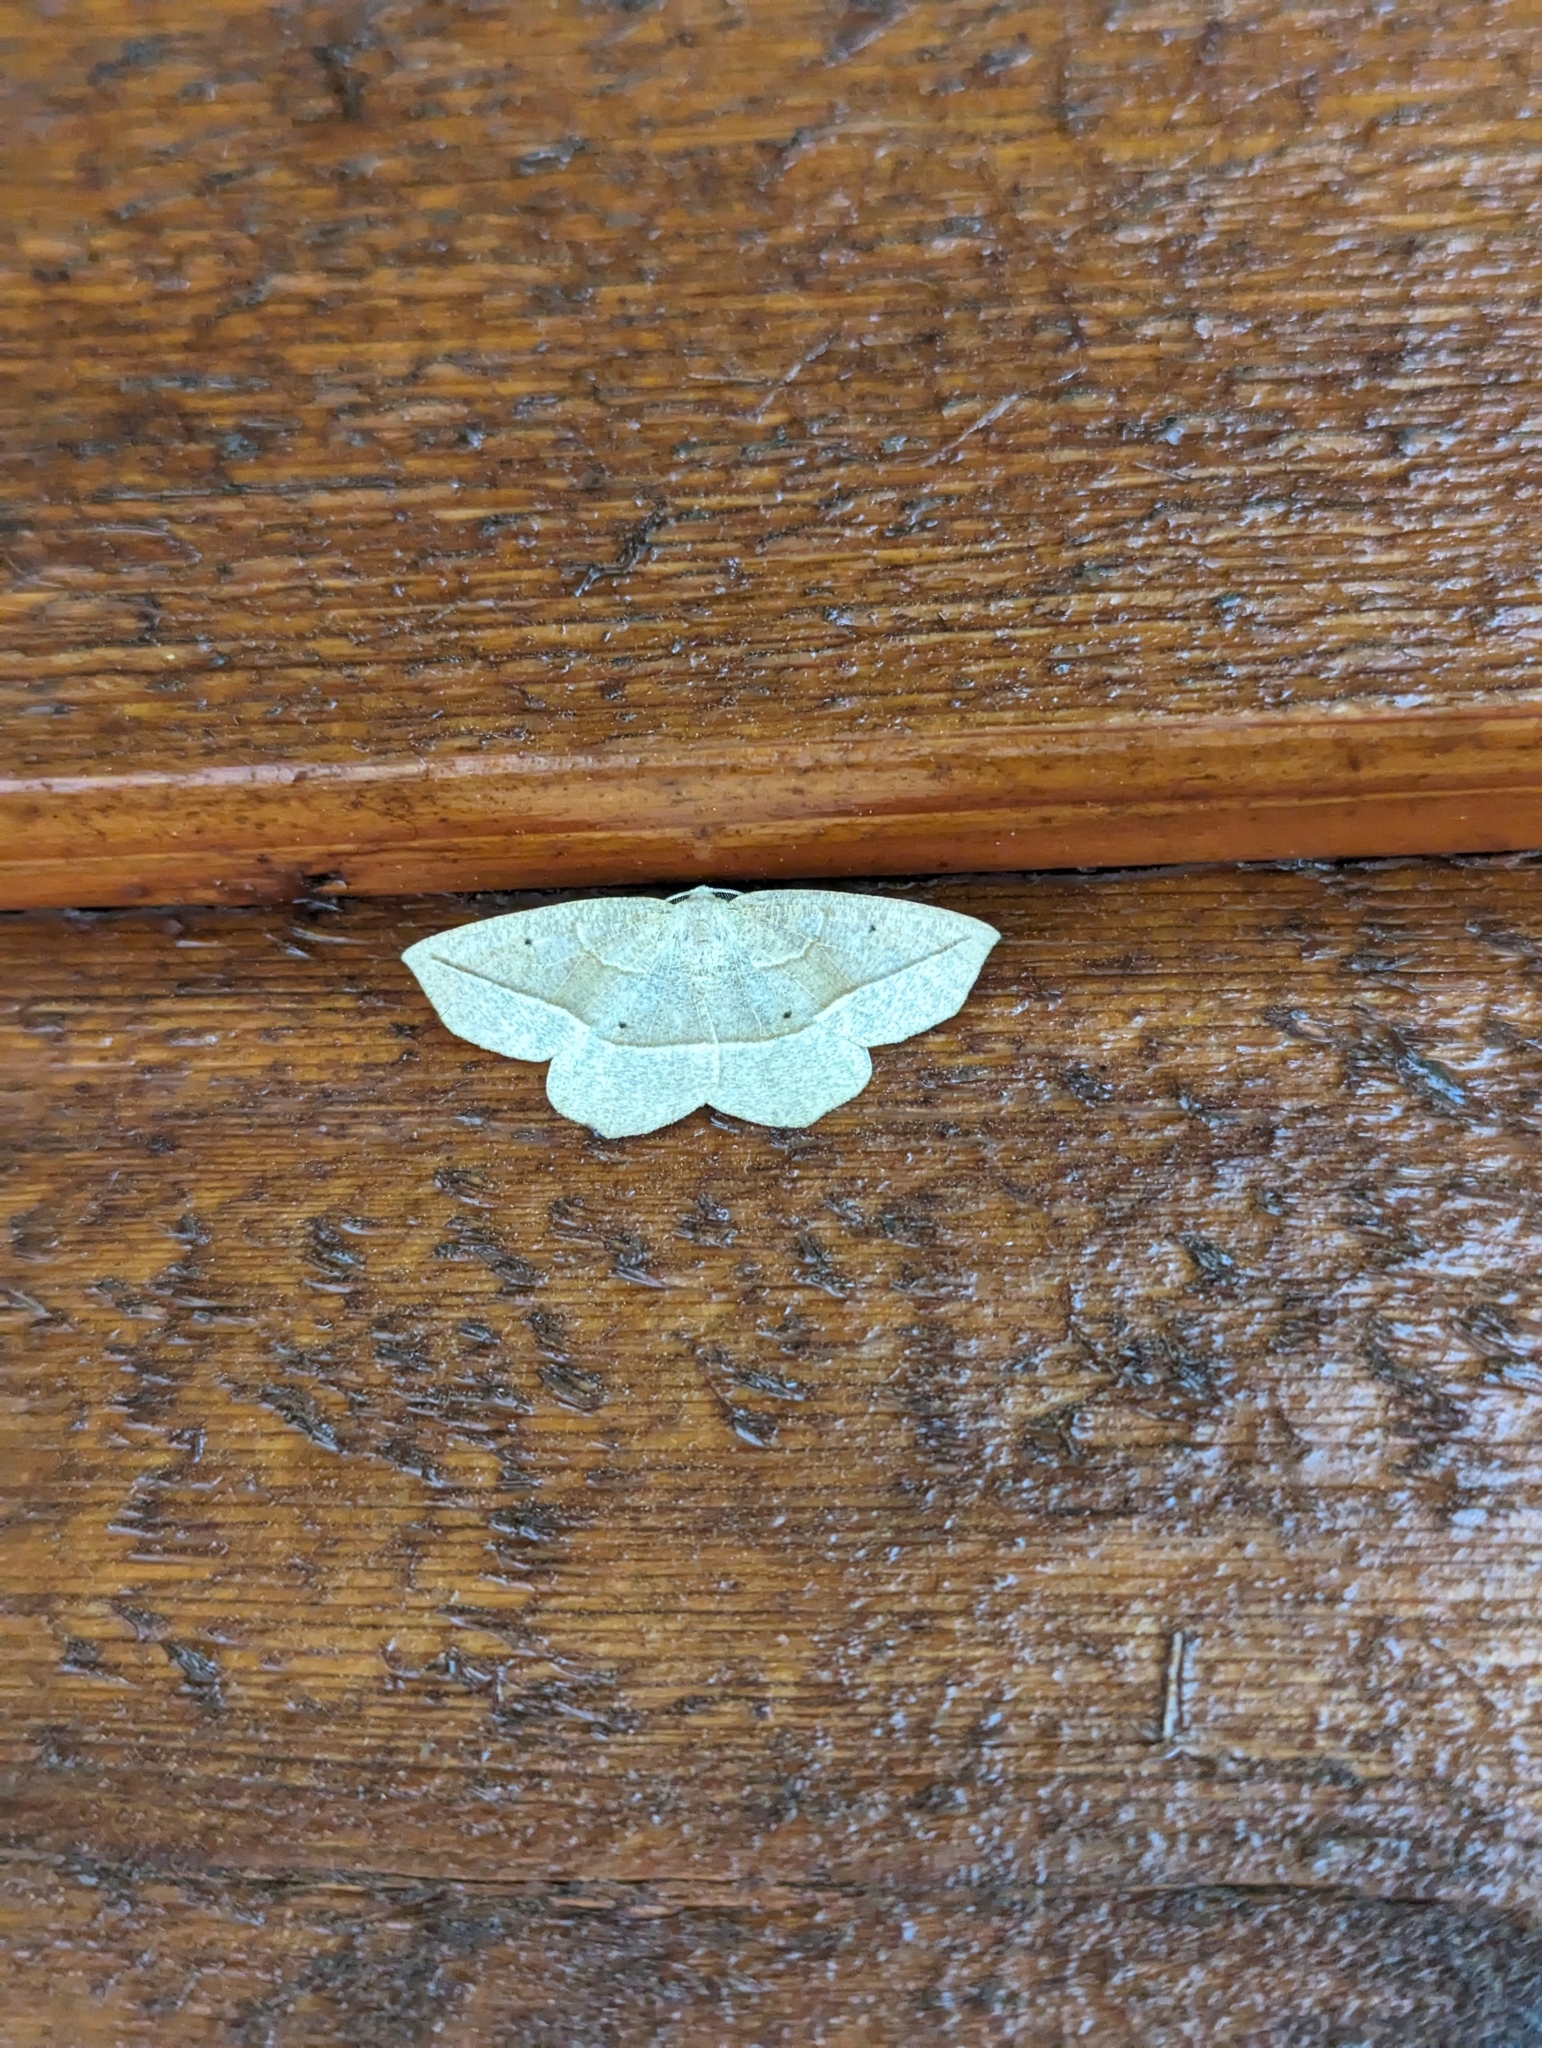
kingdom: Animalia
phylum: Arthropoda
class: Insecta
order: Lepidoptera
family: Geometridae
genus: Eusarca
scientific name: Eusarca confusaria
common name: Confused eusarca
